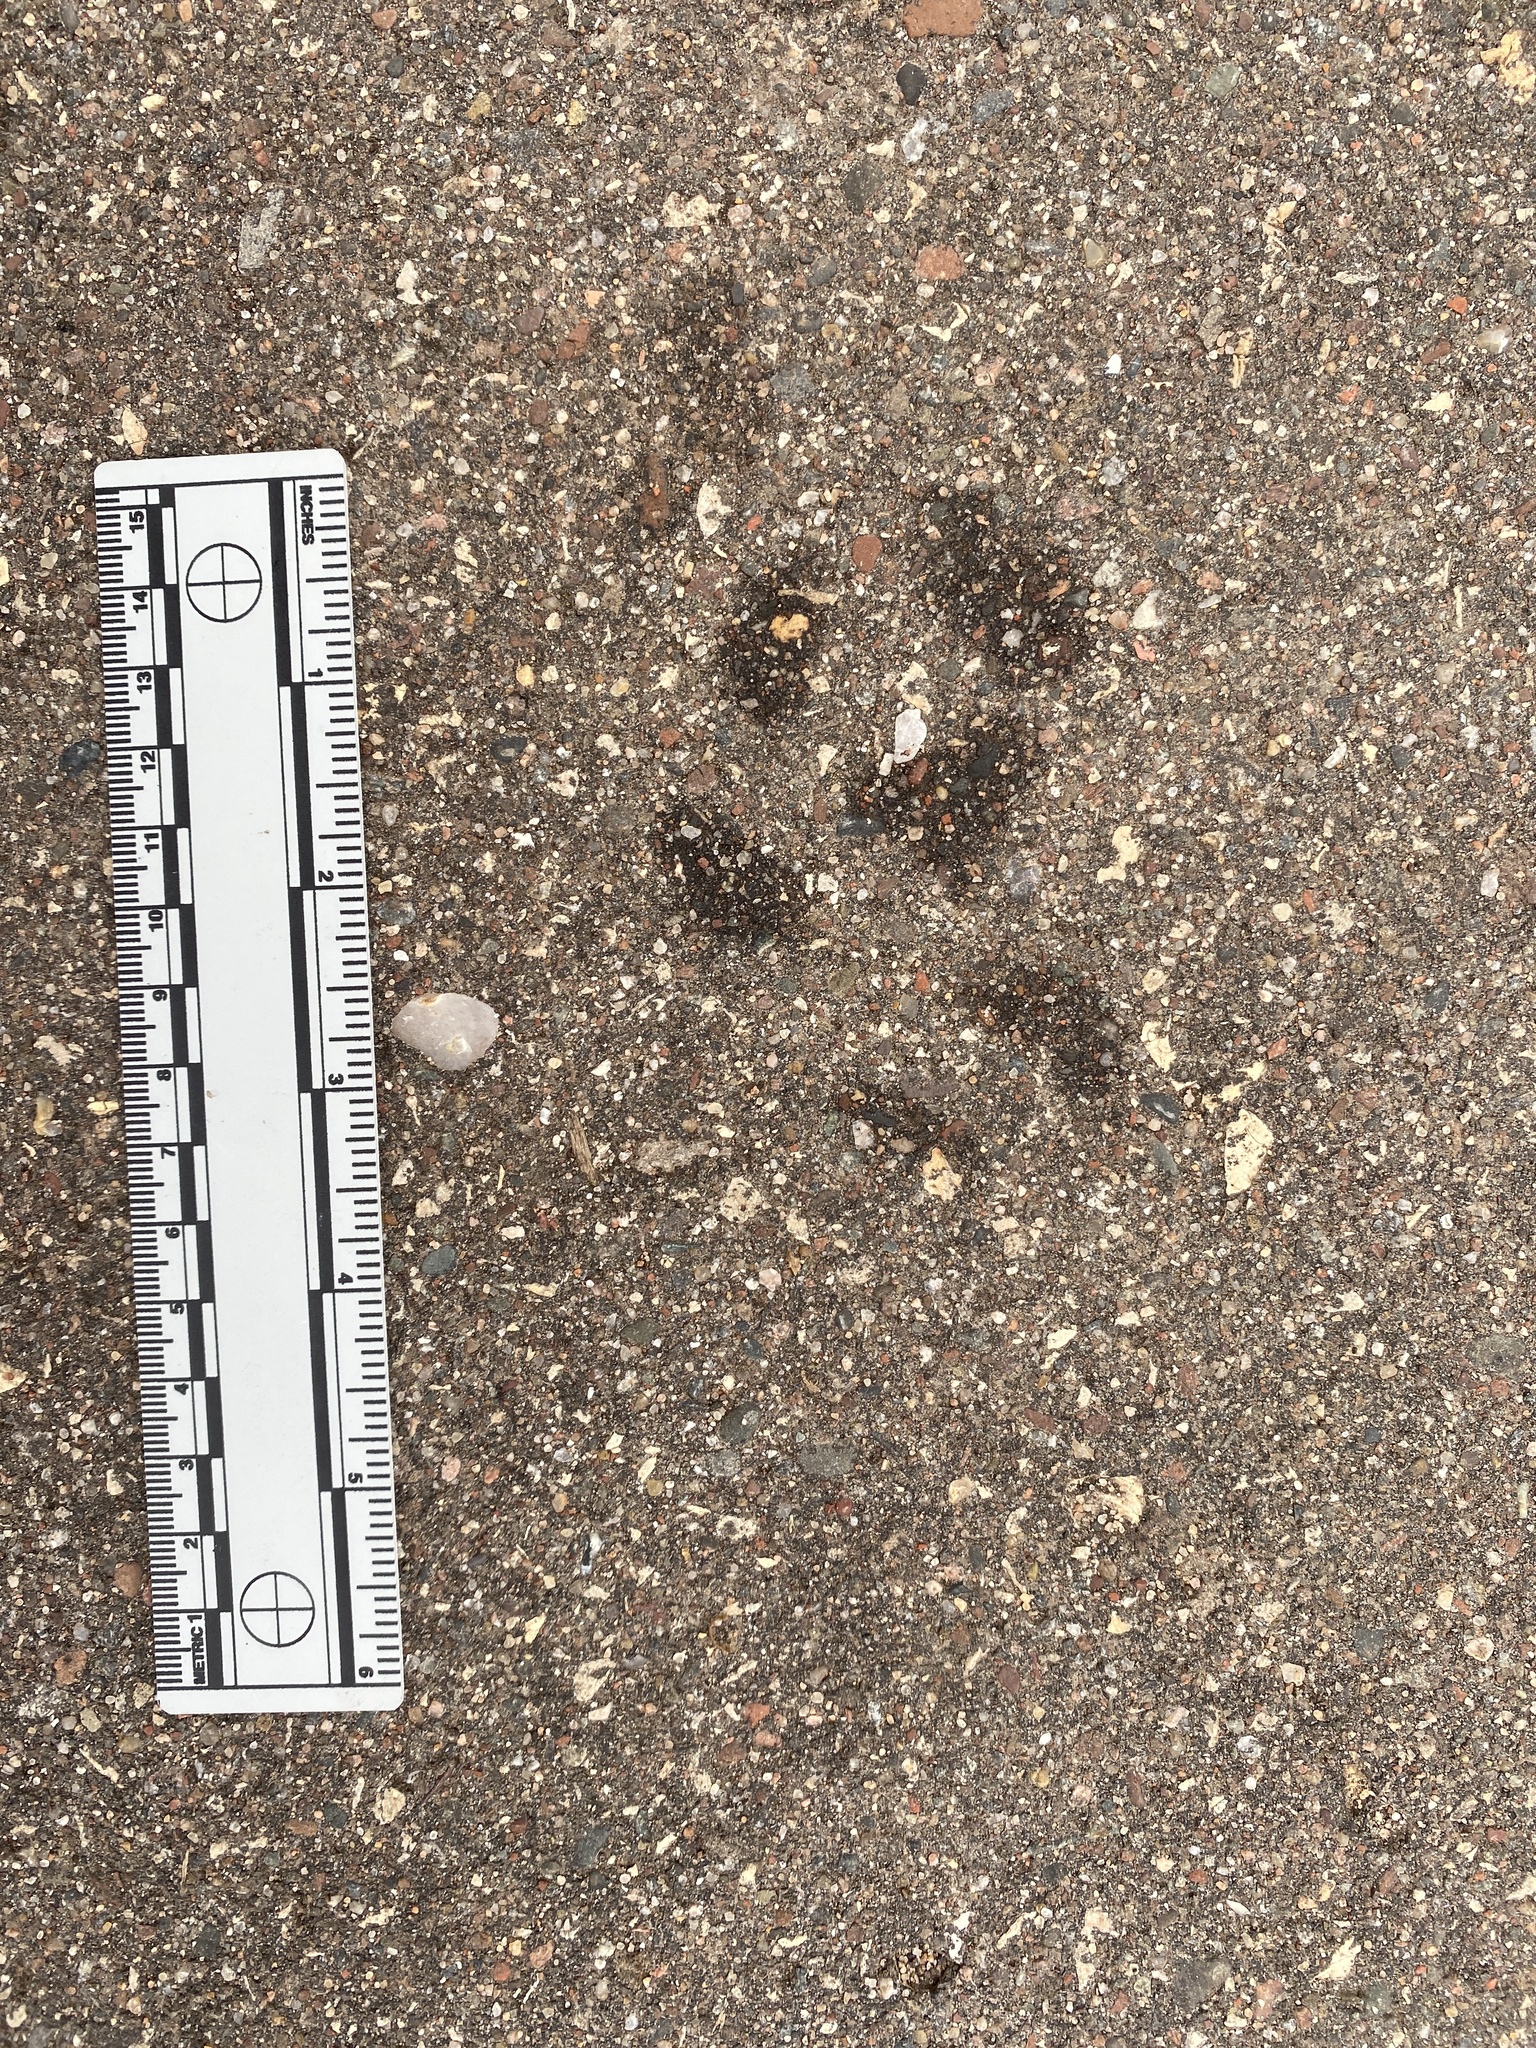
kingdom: Animalia
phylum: Chordata
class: Mammalia
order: Carnivora
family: Canidae
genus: Canis
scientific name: Canis latrans
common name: Coyote
